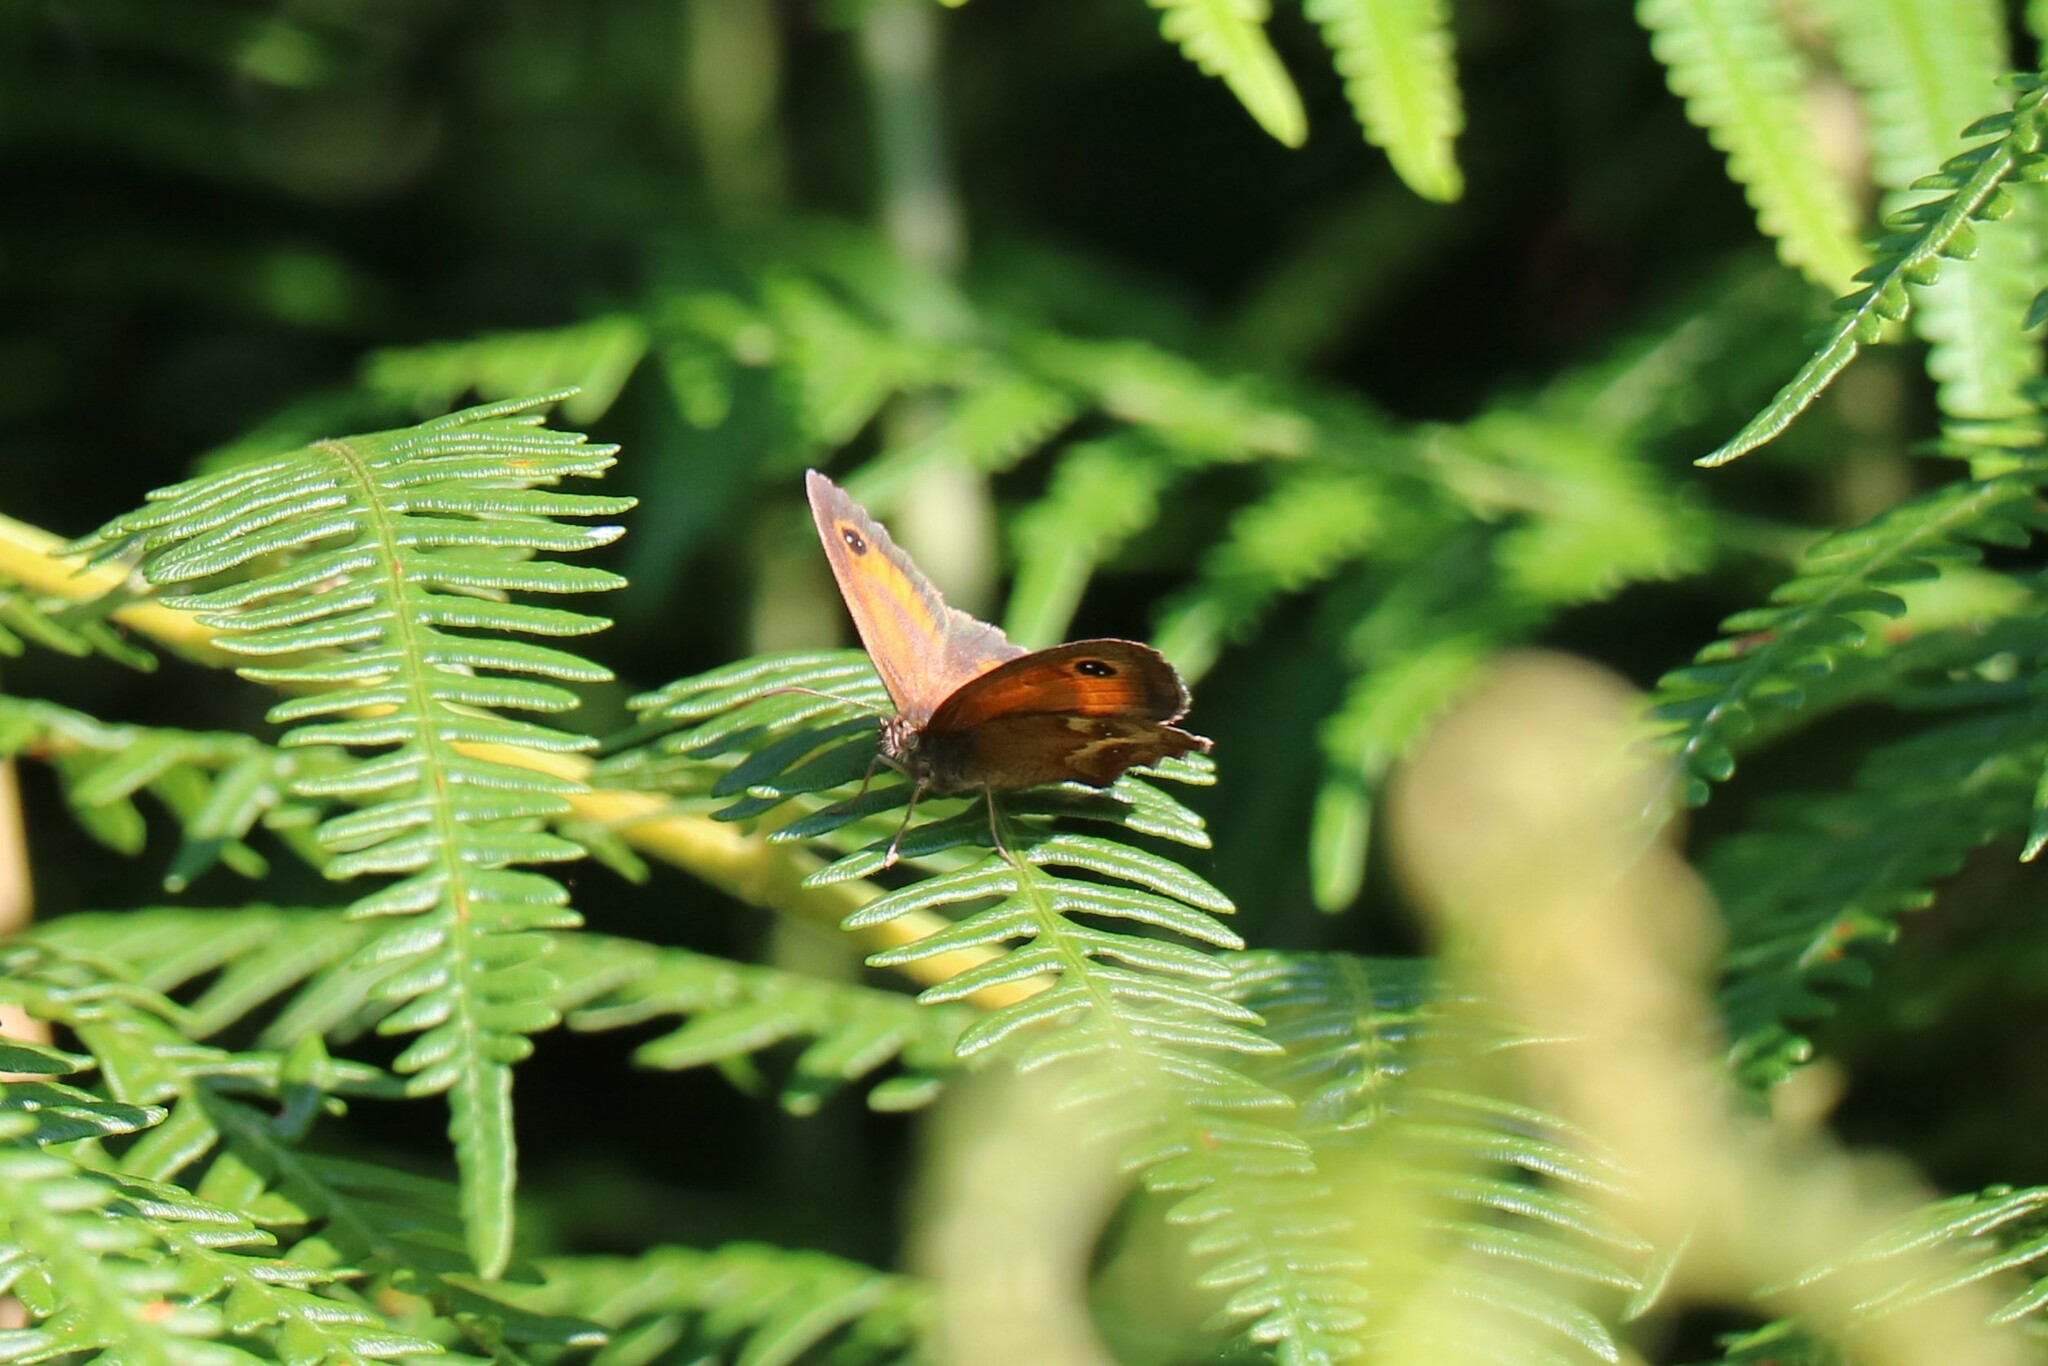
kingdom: Animalia
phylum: Arthropoda
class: Insecta
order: Lepidoptera
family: Nymphalidae
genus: Pyronia
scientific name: Pyronia tithonus
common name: Gatekeeper
